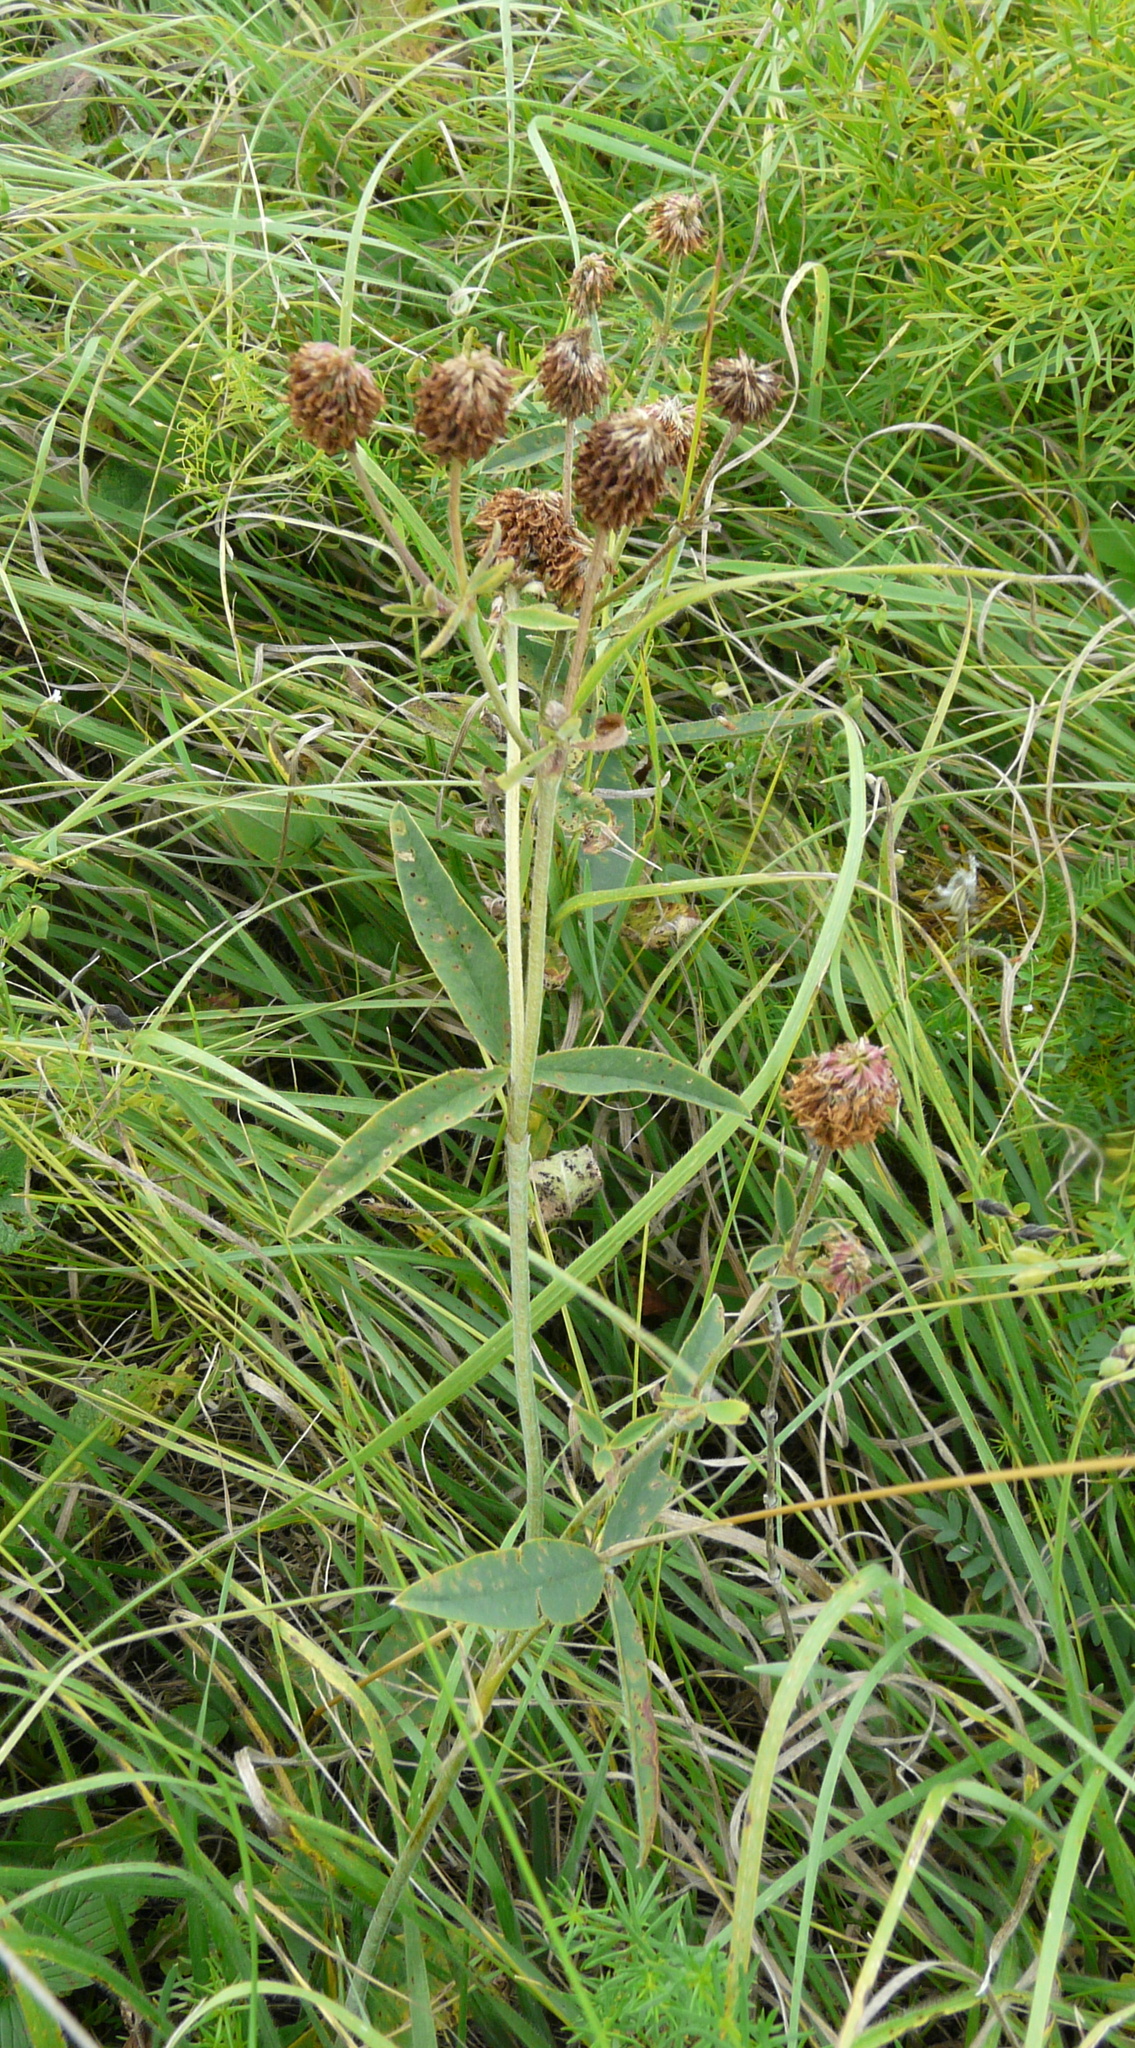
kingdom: Plantae
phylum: Tracheophyta
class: Magnoliopsida
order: Fabales
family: Fabaceae
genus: Trifolium
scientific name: Trifolium montanum
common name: Mountain clover
